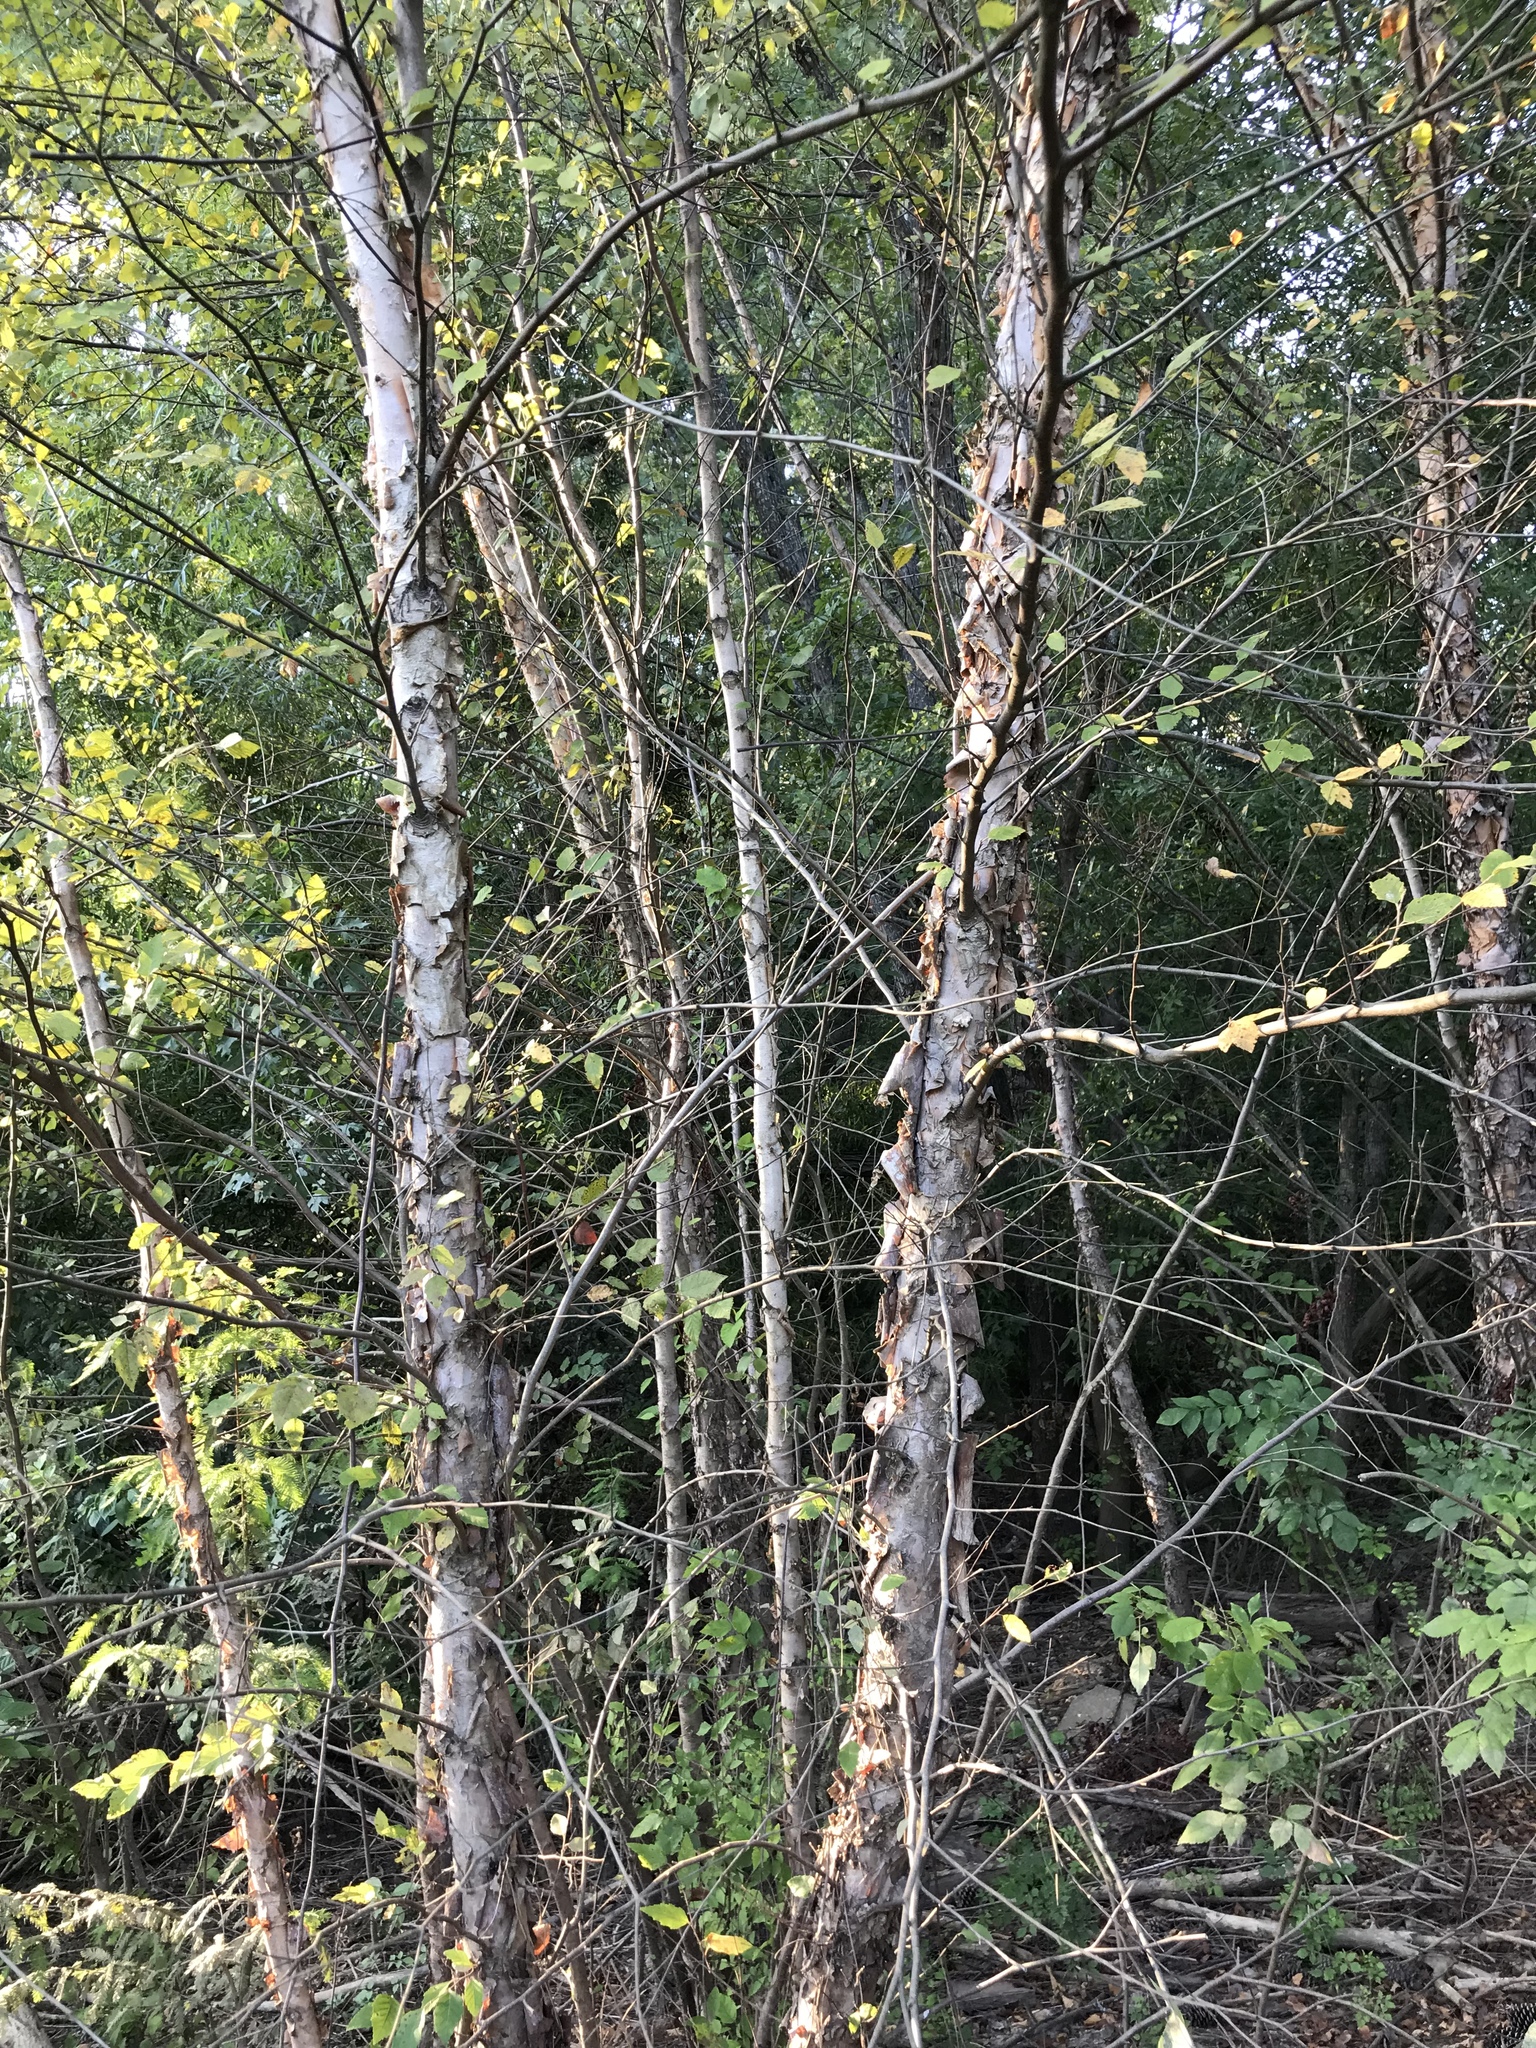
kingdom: Plantae
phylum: Tracheophyta
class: Magnoliopsida
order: Fagales
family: Betulaceae
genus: Betula
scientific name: Betula nigra
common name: Black birch
